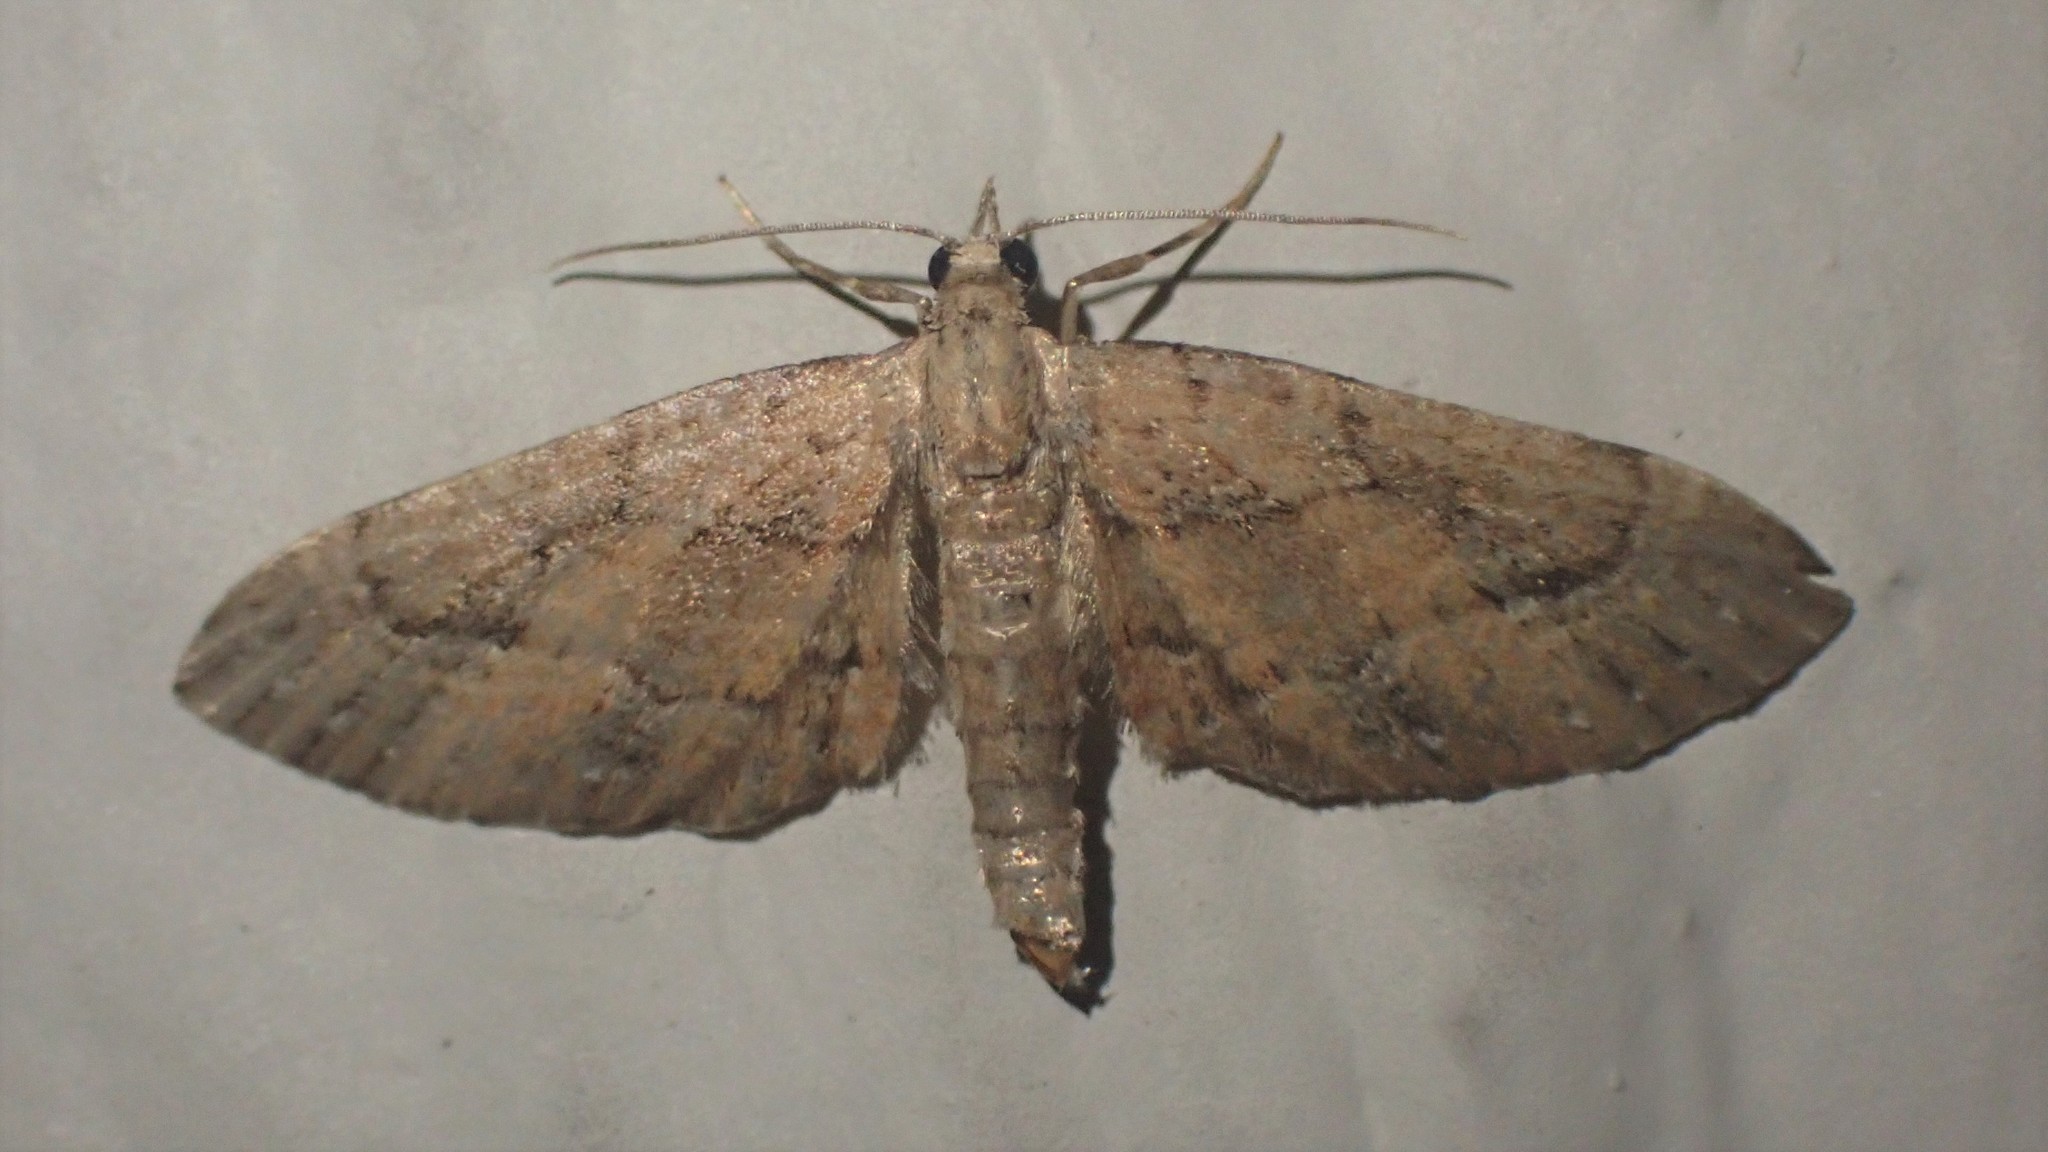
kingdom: Animalia
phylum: Arthropoda
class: Insecta
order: Lepidoptera
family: Geometridae
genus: Eupithecia
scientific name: Eupithecia unicolor
